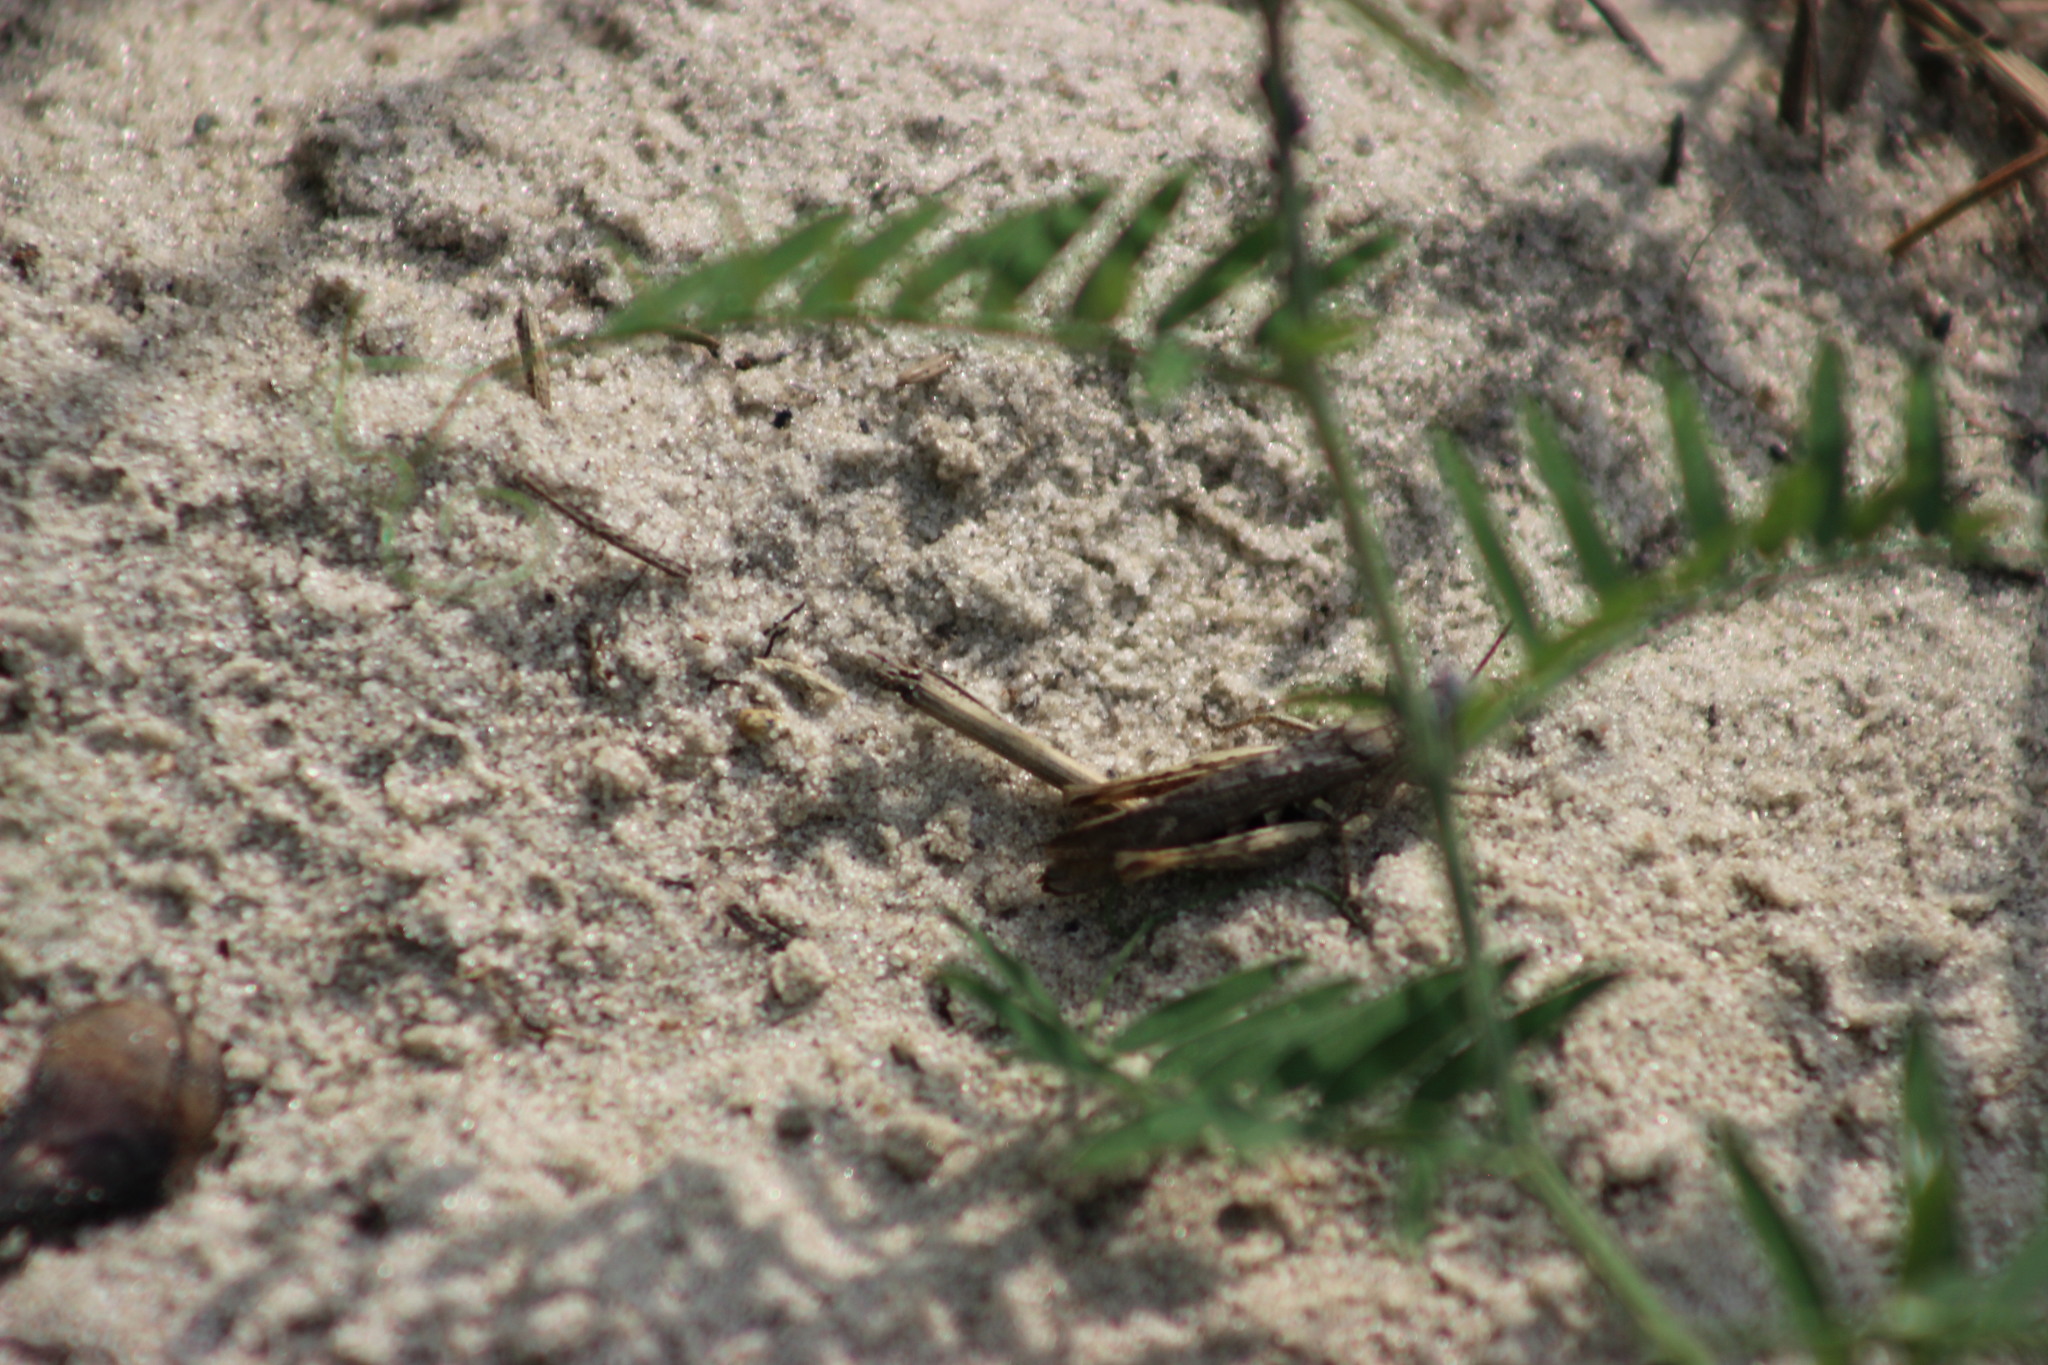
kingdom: Animalia
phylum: Arthropoda
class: Insecta
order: Orthoptera
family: Acrididae
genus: Glyptobothrus
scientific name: Glyptobothrus
